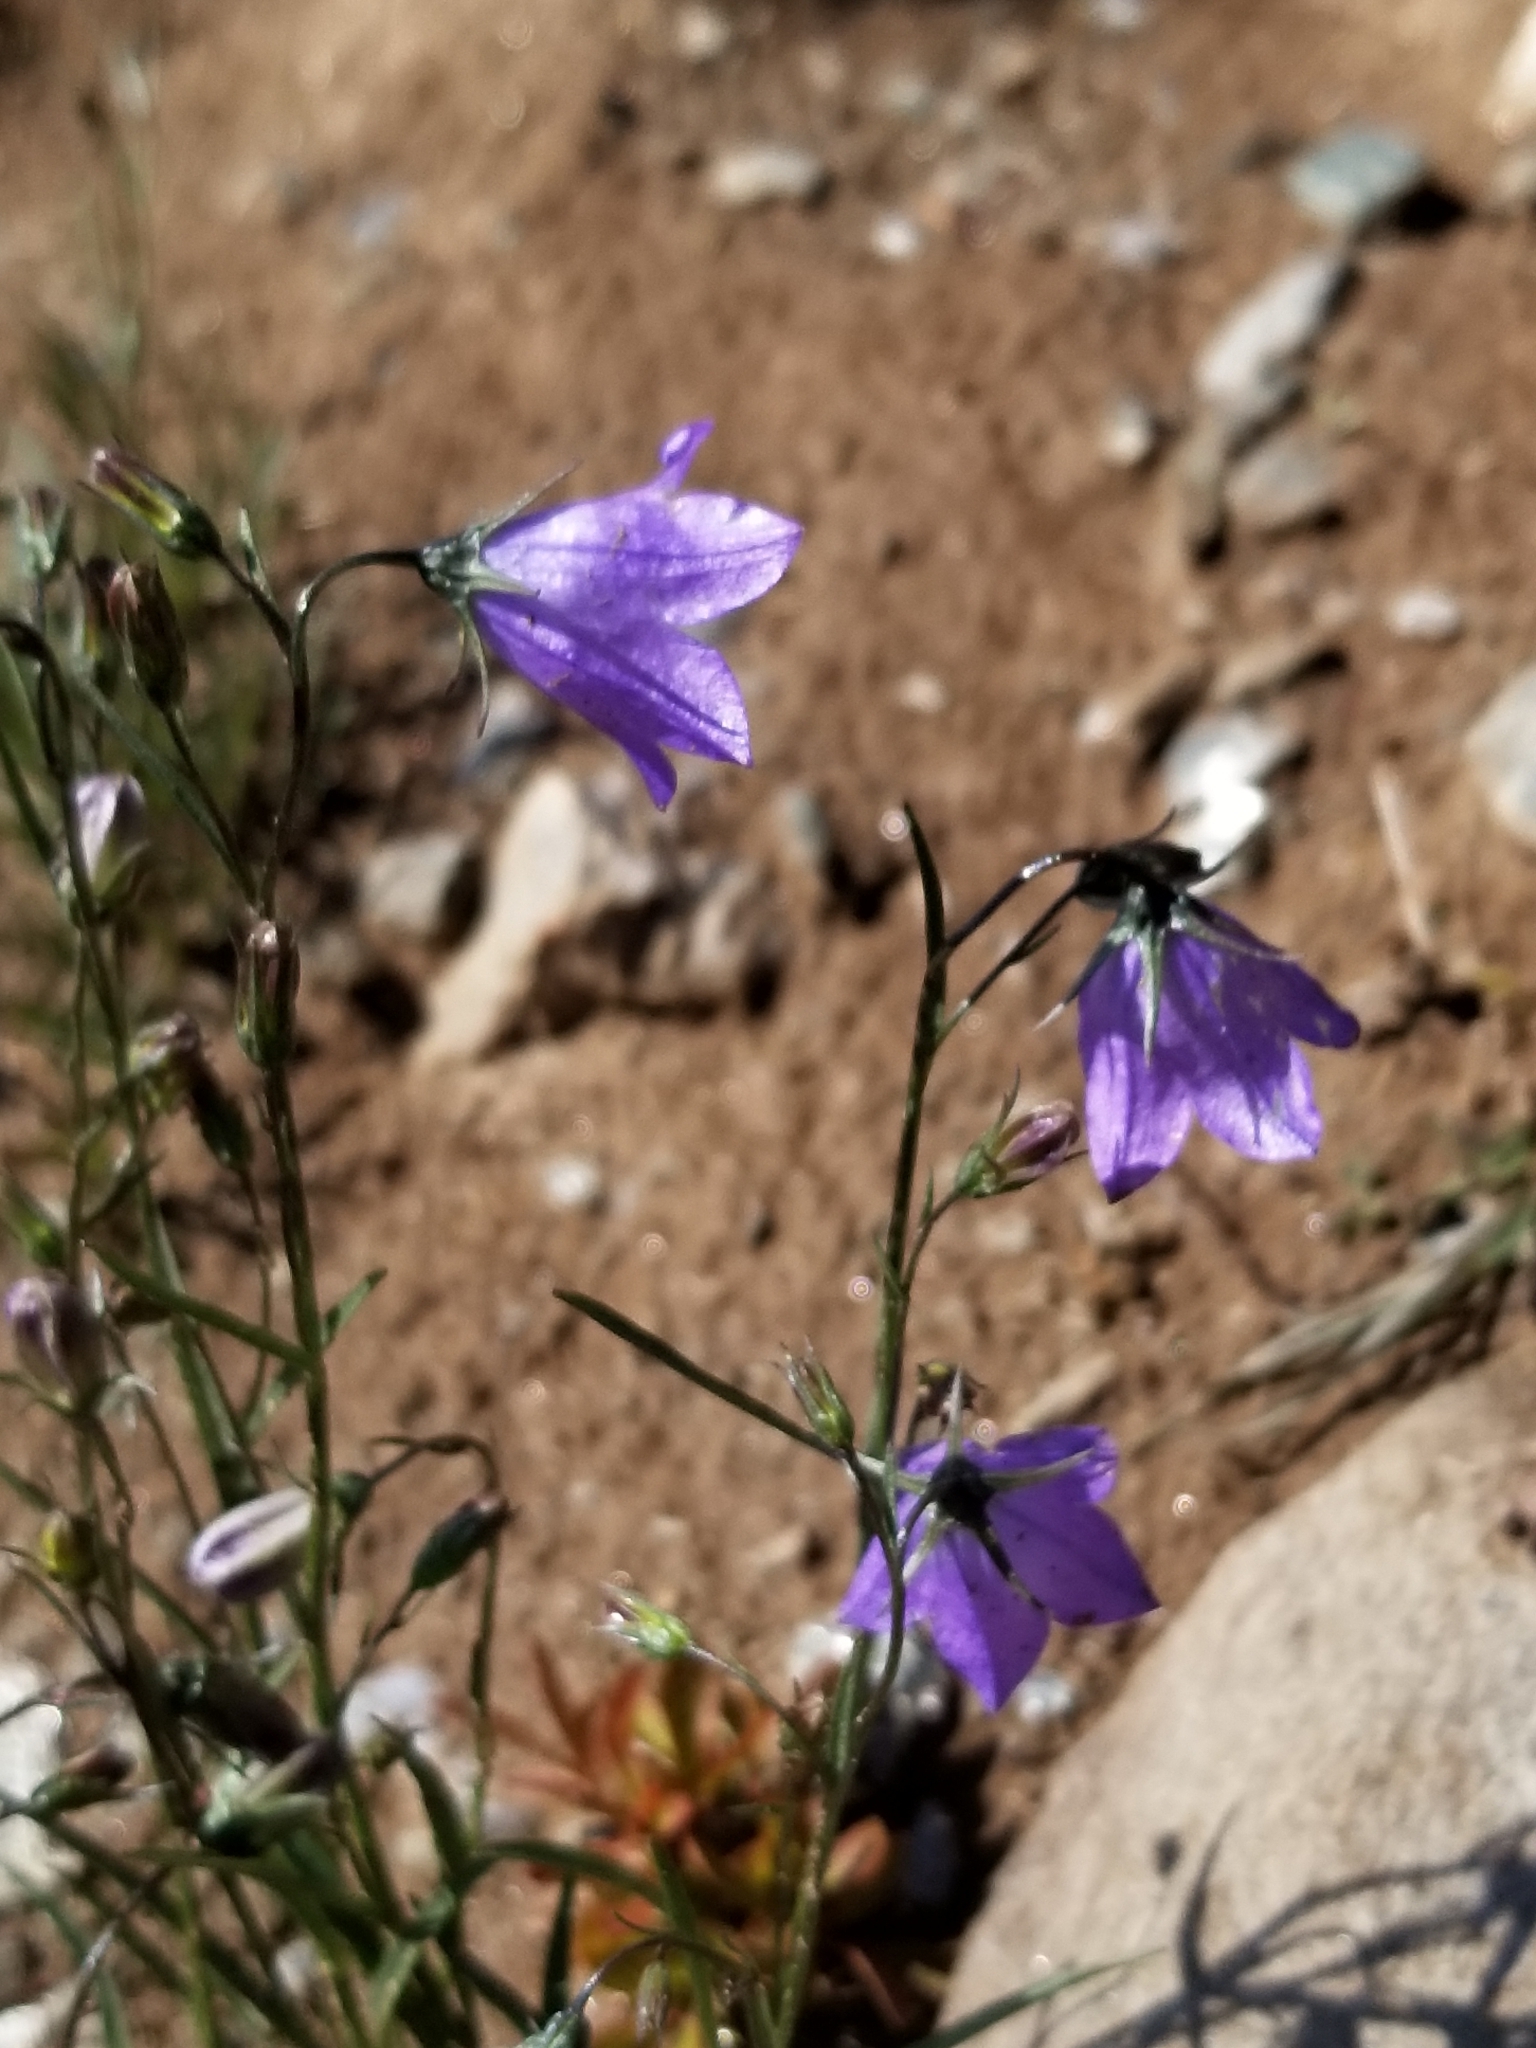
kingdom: Plantae
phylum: Tracheophyta
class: Magnoliopsida
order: Asterales
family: Campanulaceae
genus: Campanula
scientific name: Campanula petiolata
